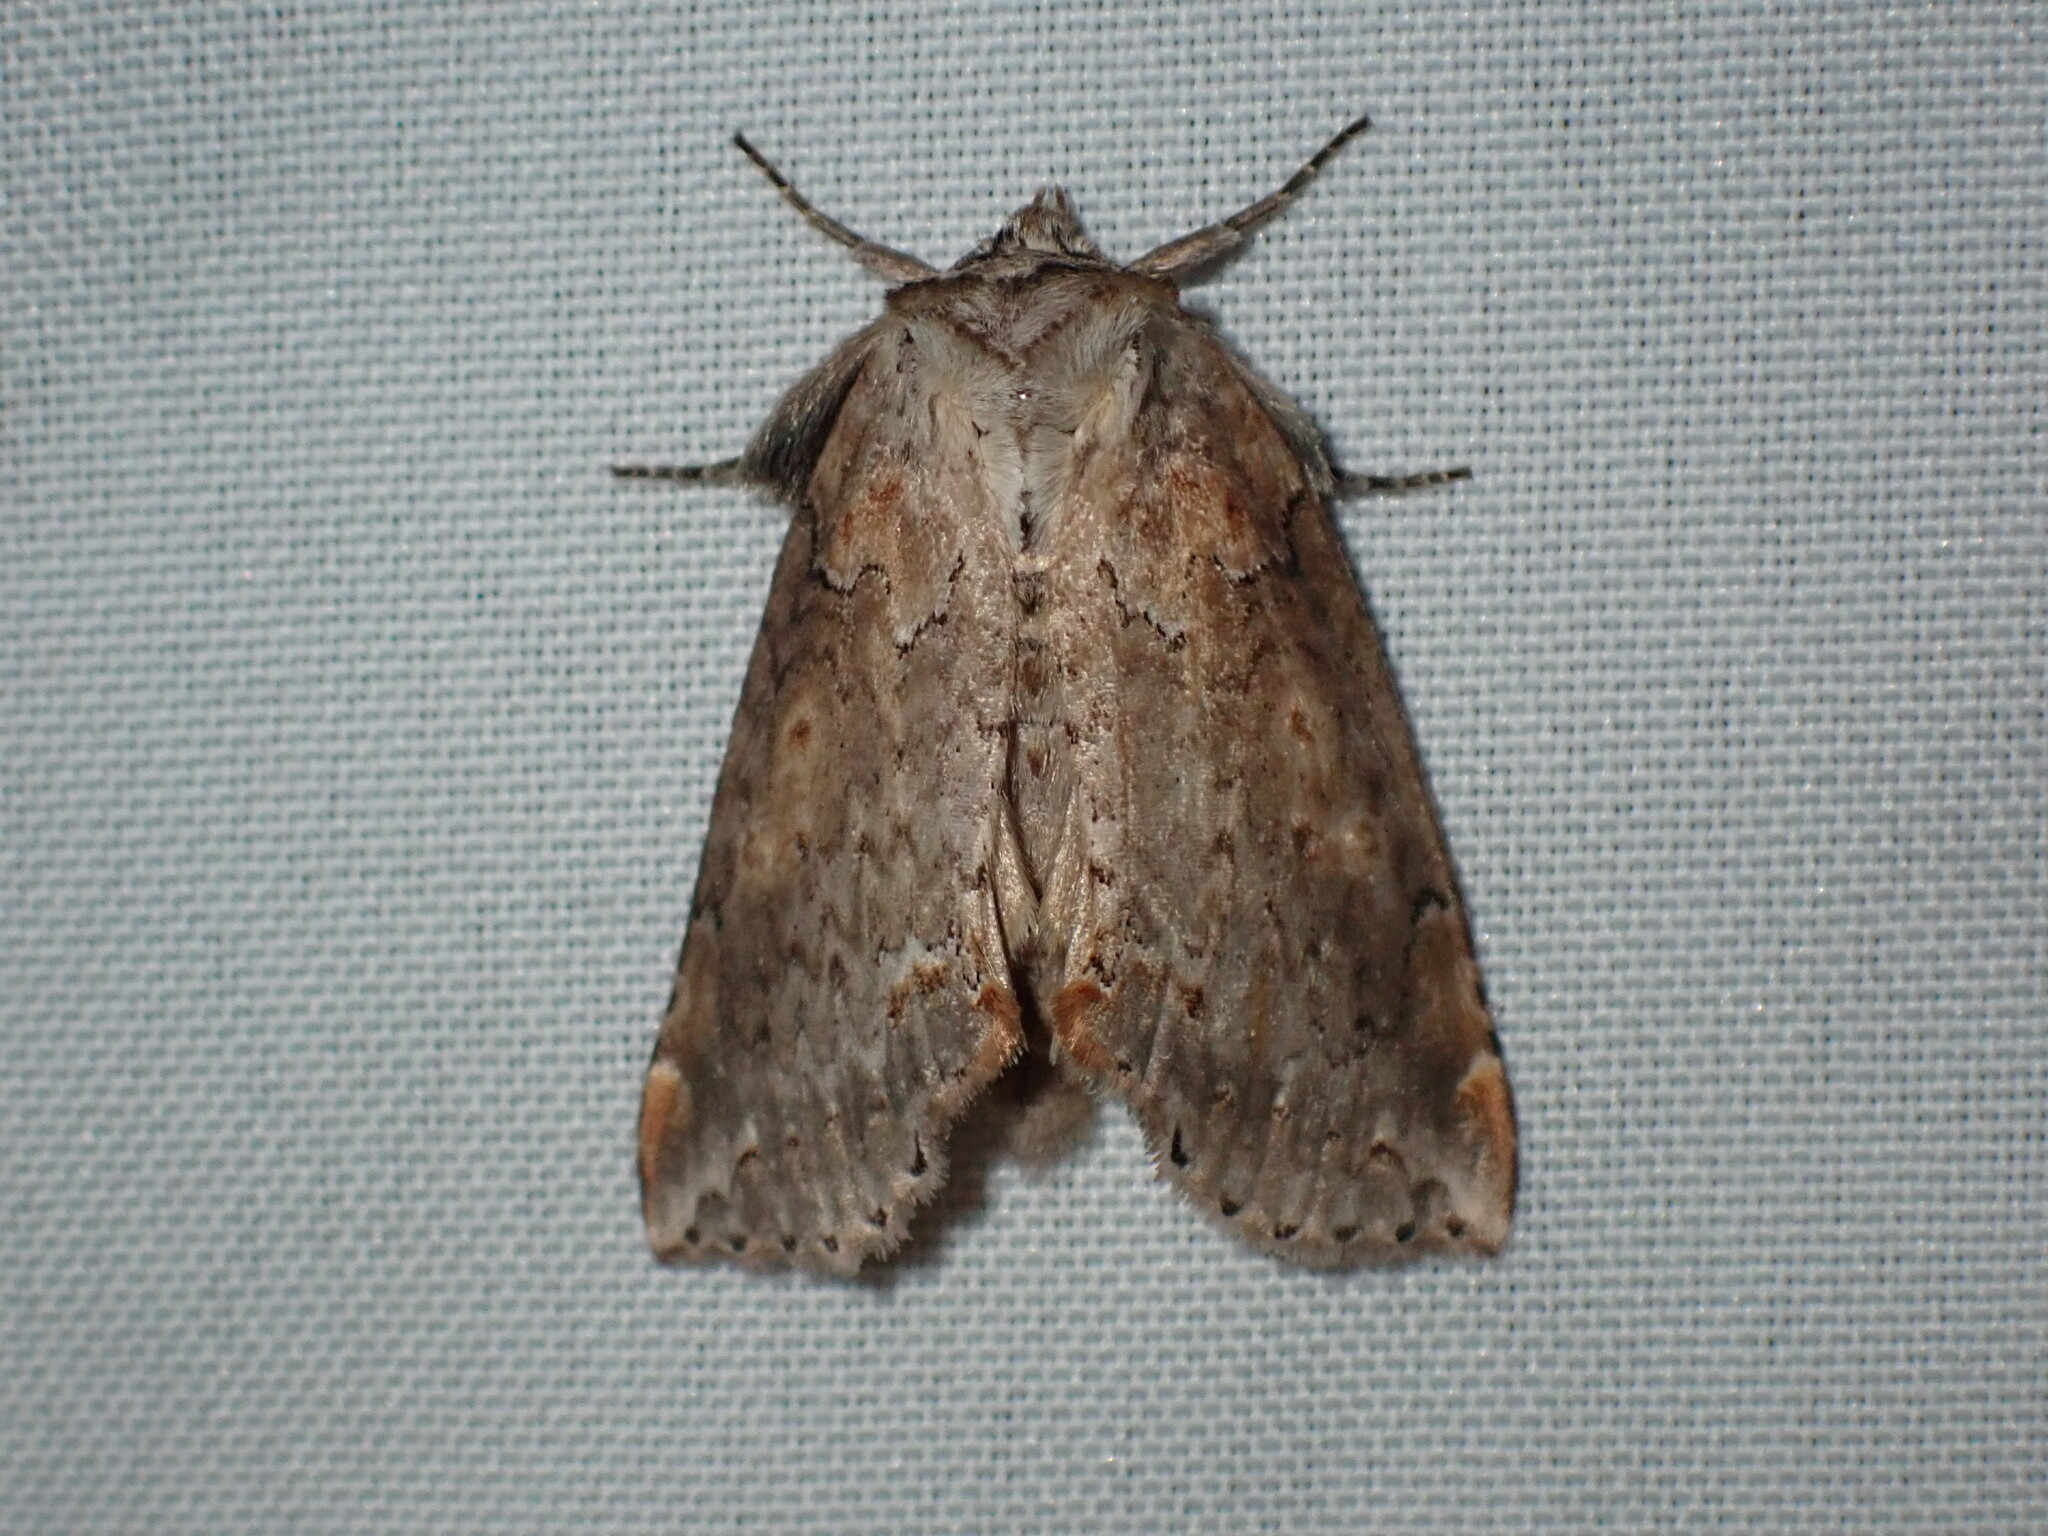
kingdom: Animalia
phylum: Arthropoda
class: Insecta
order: Lepidoptera
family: Drepanidae
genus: Pseudothyatira
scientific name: Pseudothyatira cymatophoroides
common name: Tufted thyatirid moth
